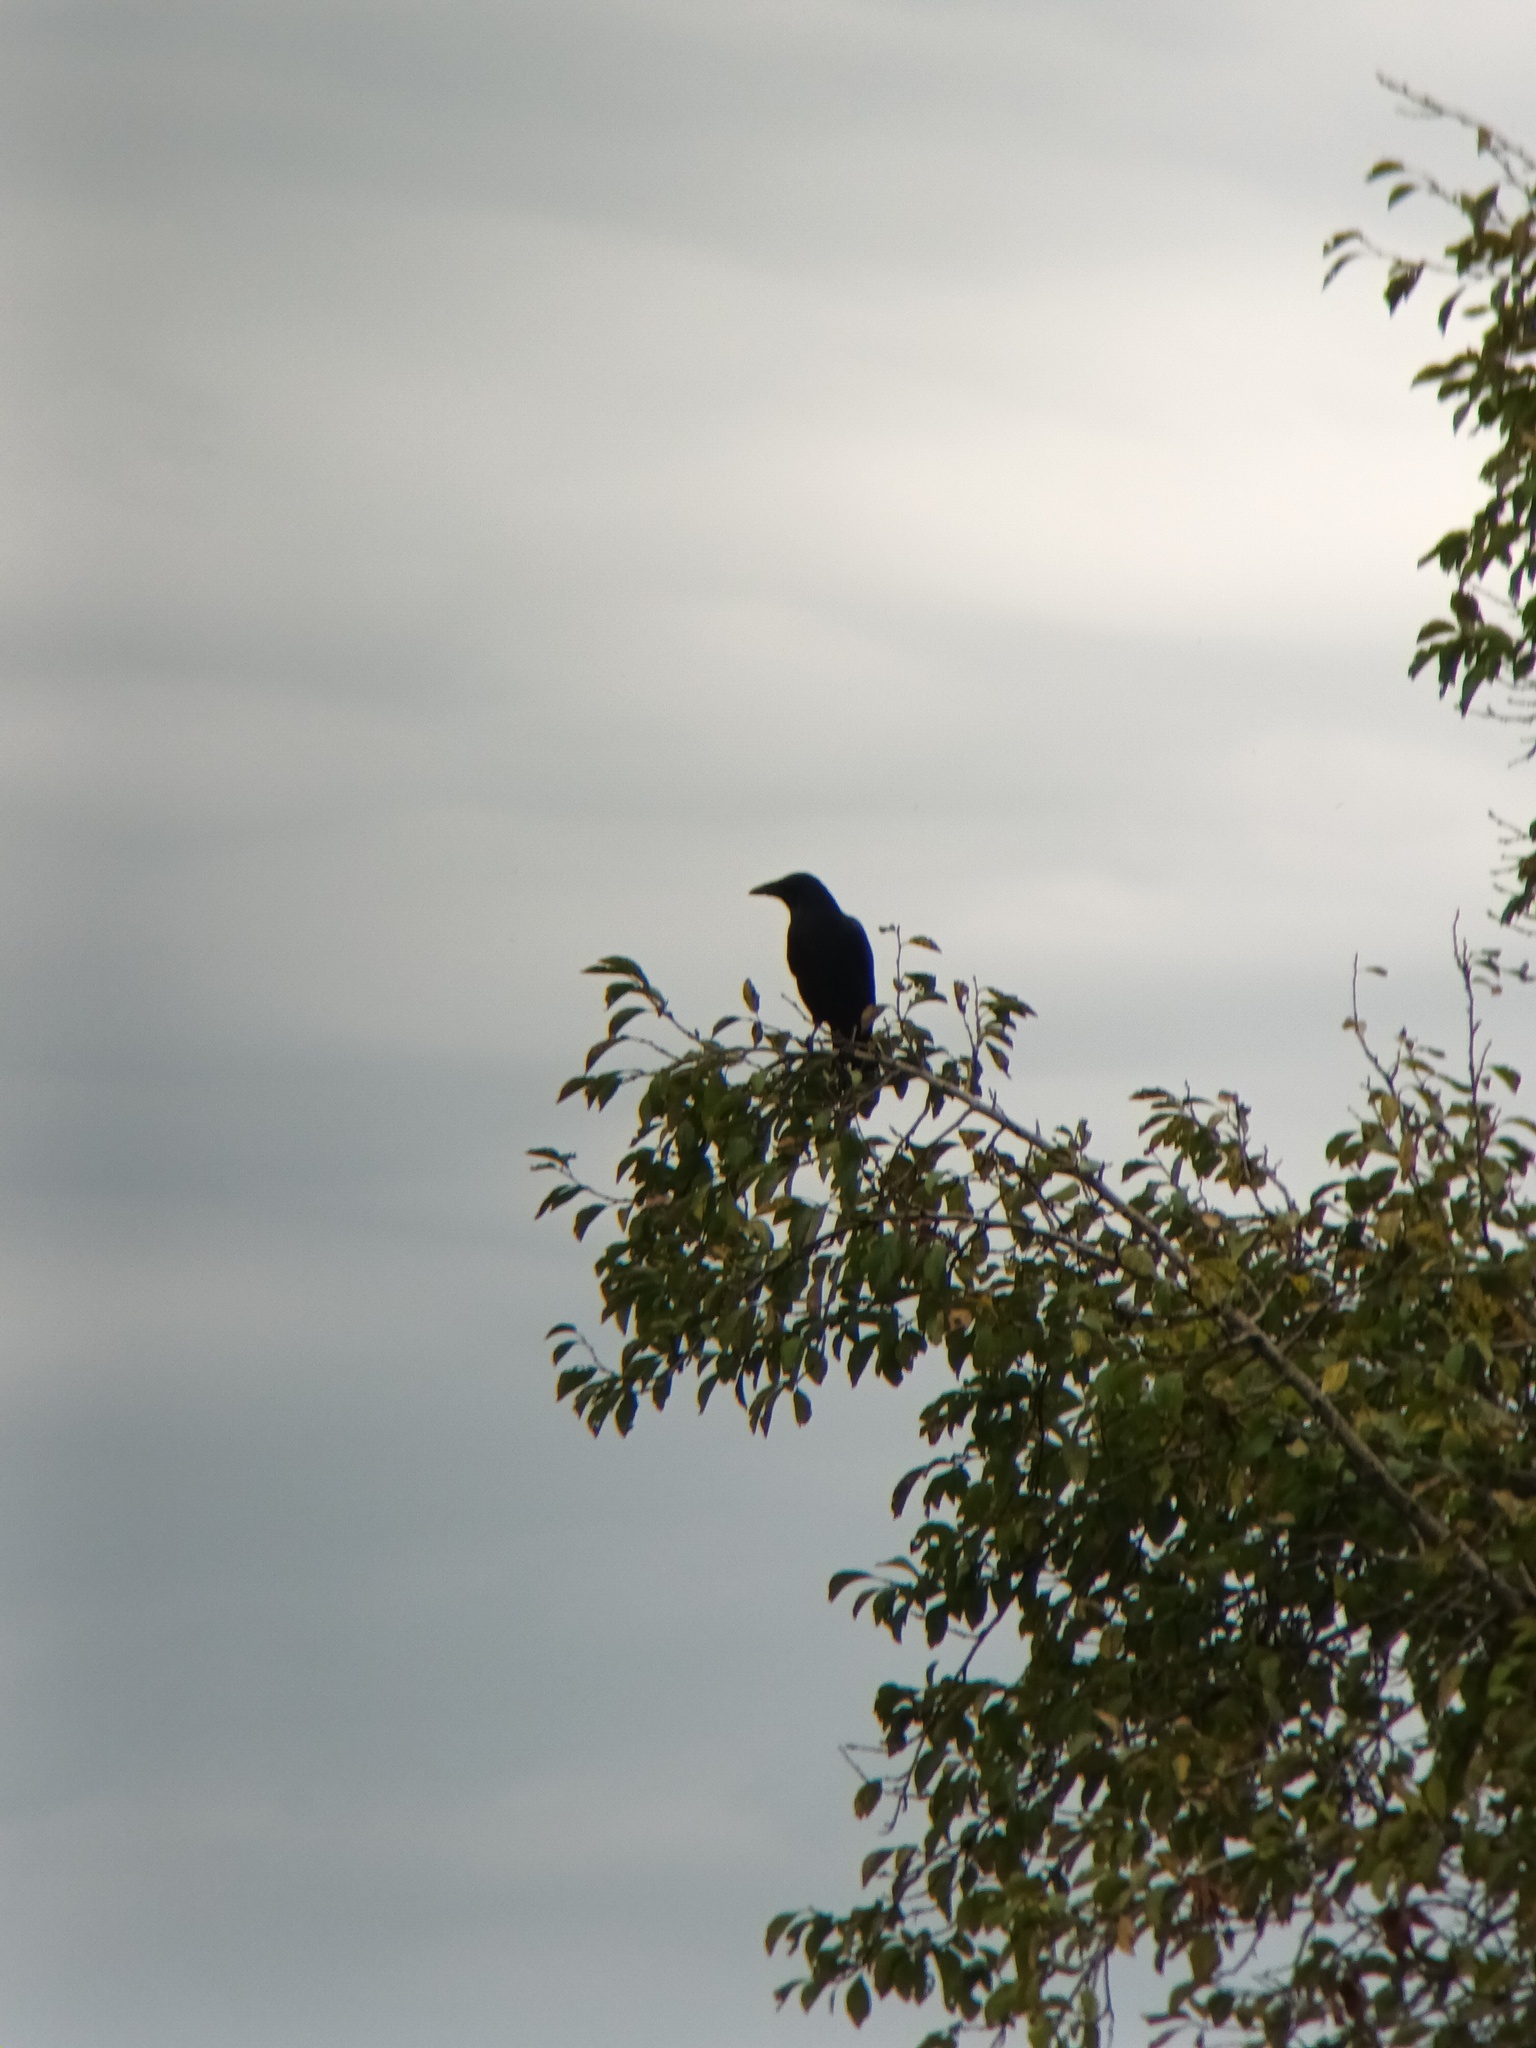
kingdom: Animalia
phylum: Chordata
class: Aves
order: Passeriformes
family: Corvidae
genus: Corvus
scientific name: Corvus corone
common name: Carrion crow
